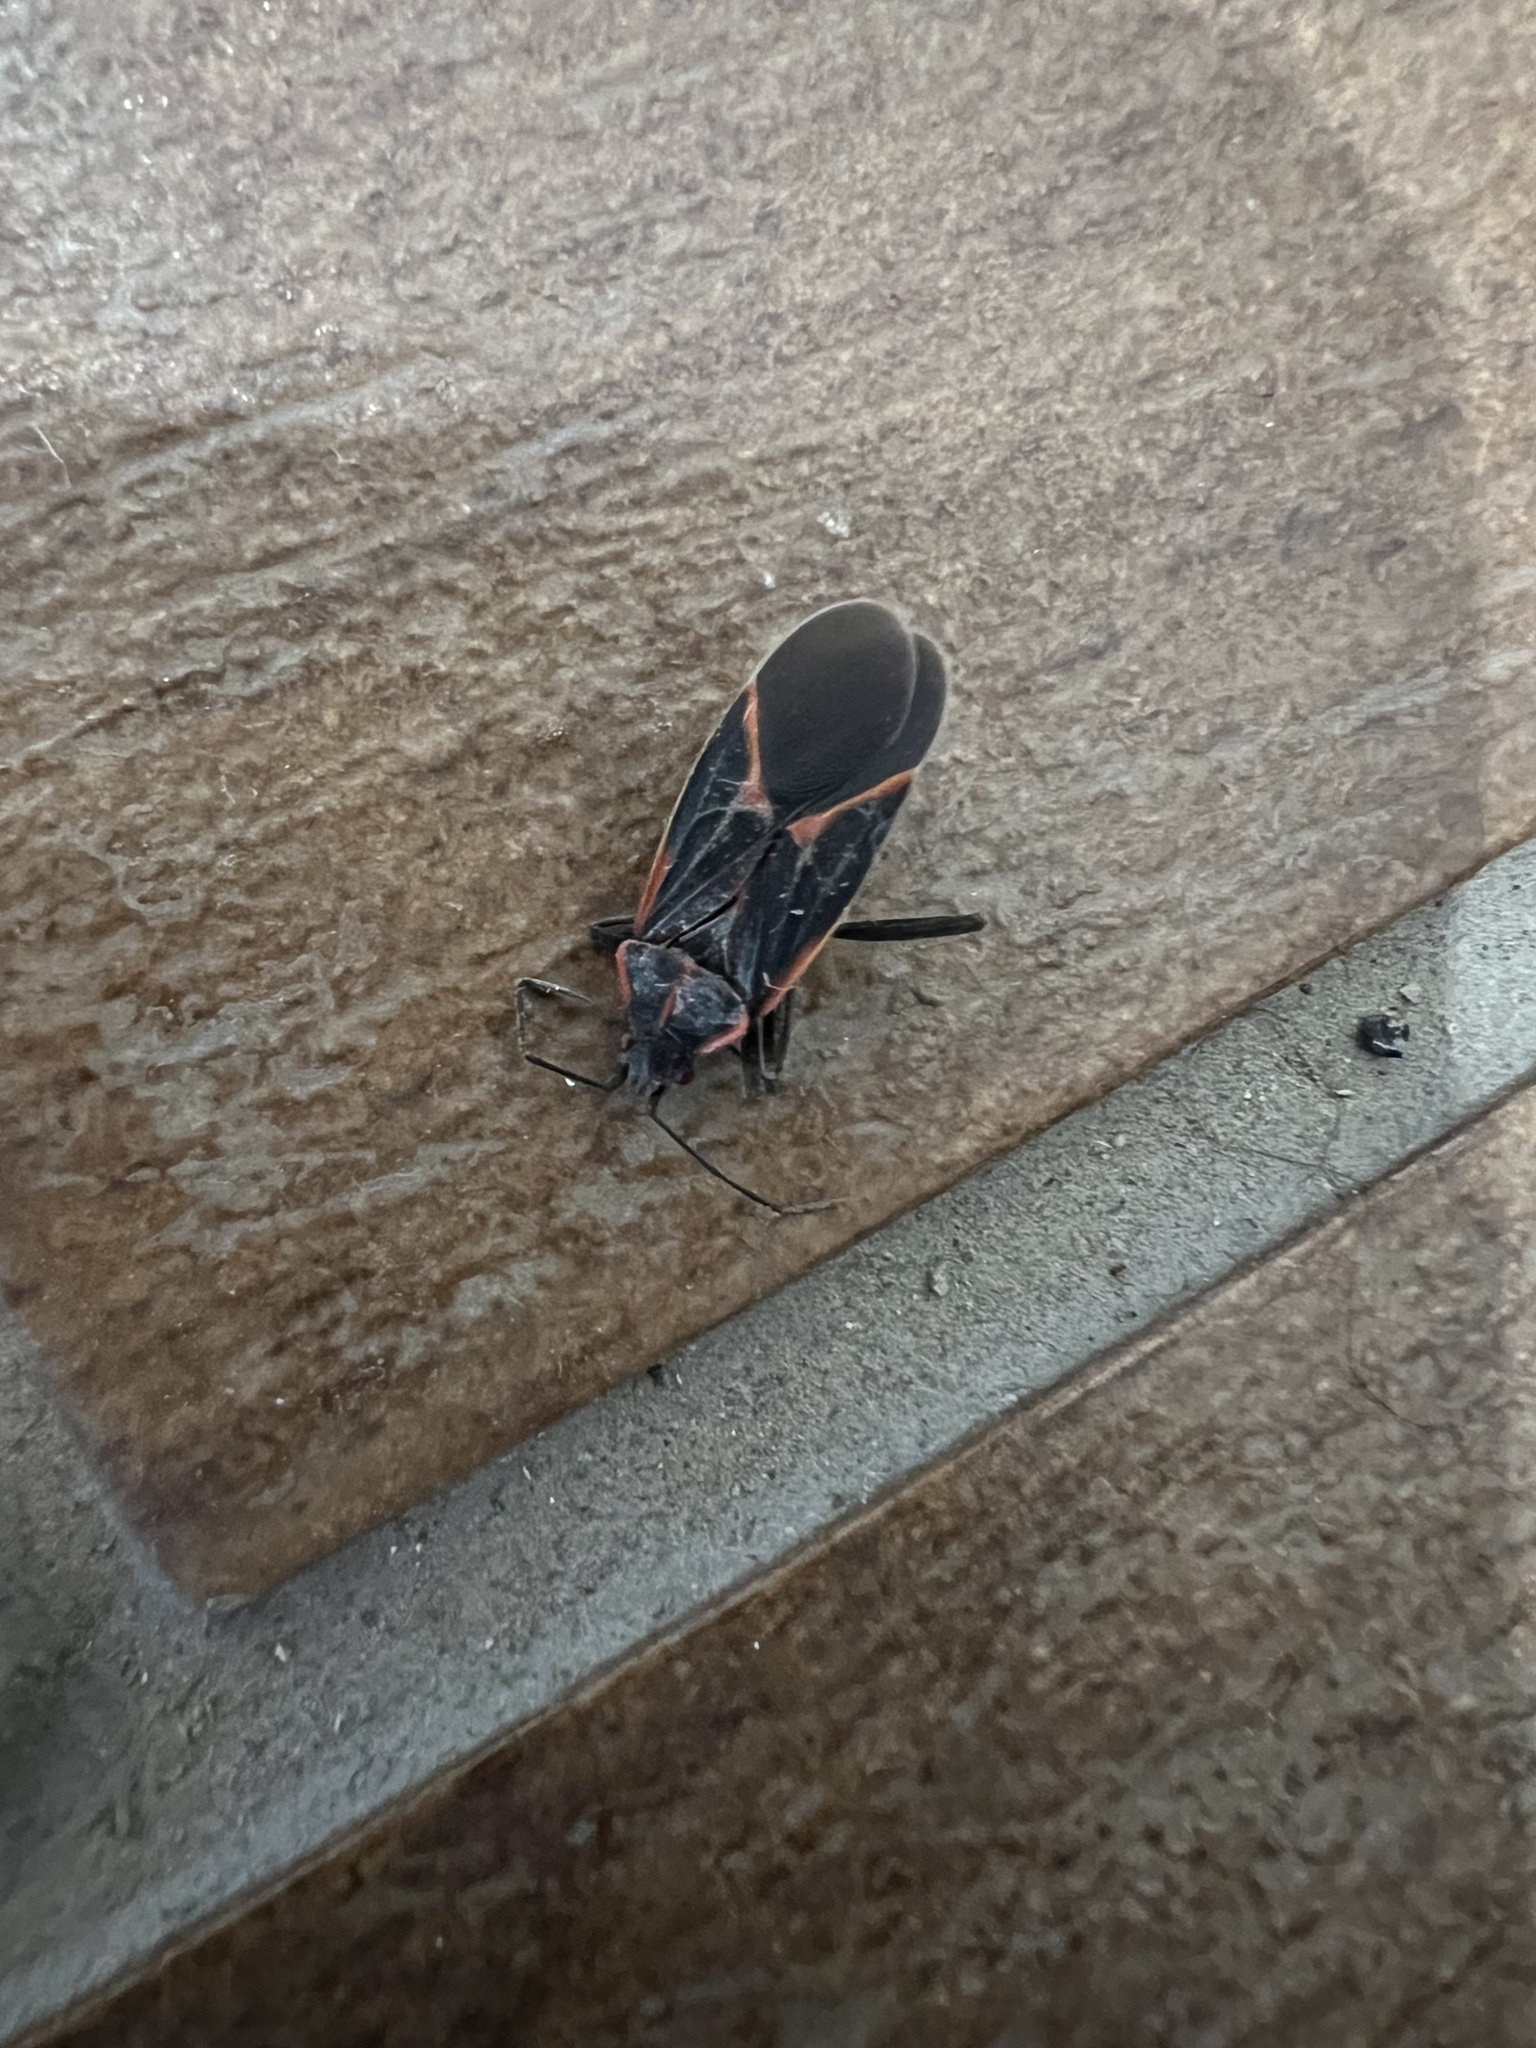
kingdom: Animalia
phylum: Arthropoda
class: Insecta
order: Hemiptera
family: Rhopalidae
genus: Boisea
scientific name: Boisea trivittata
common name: Boxelder bug
